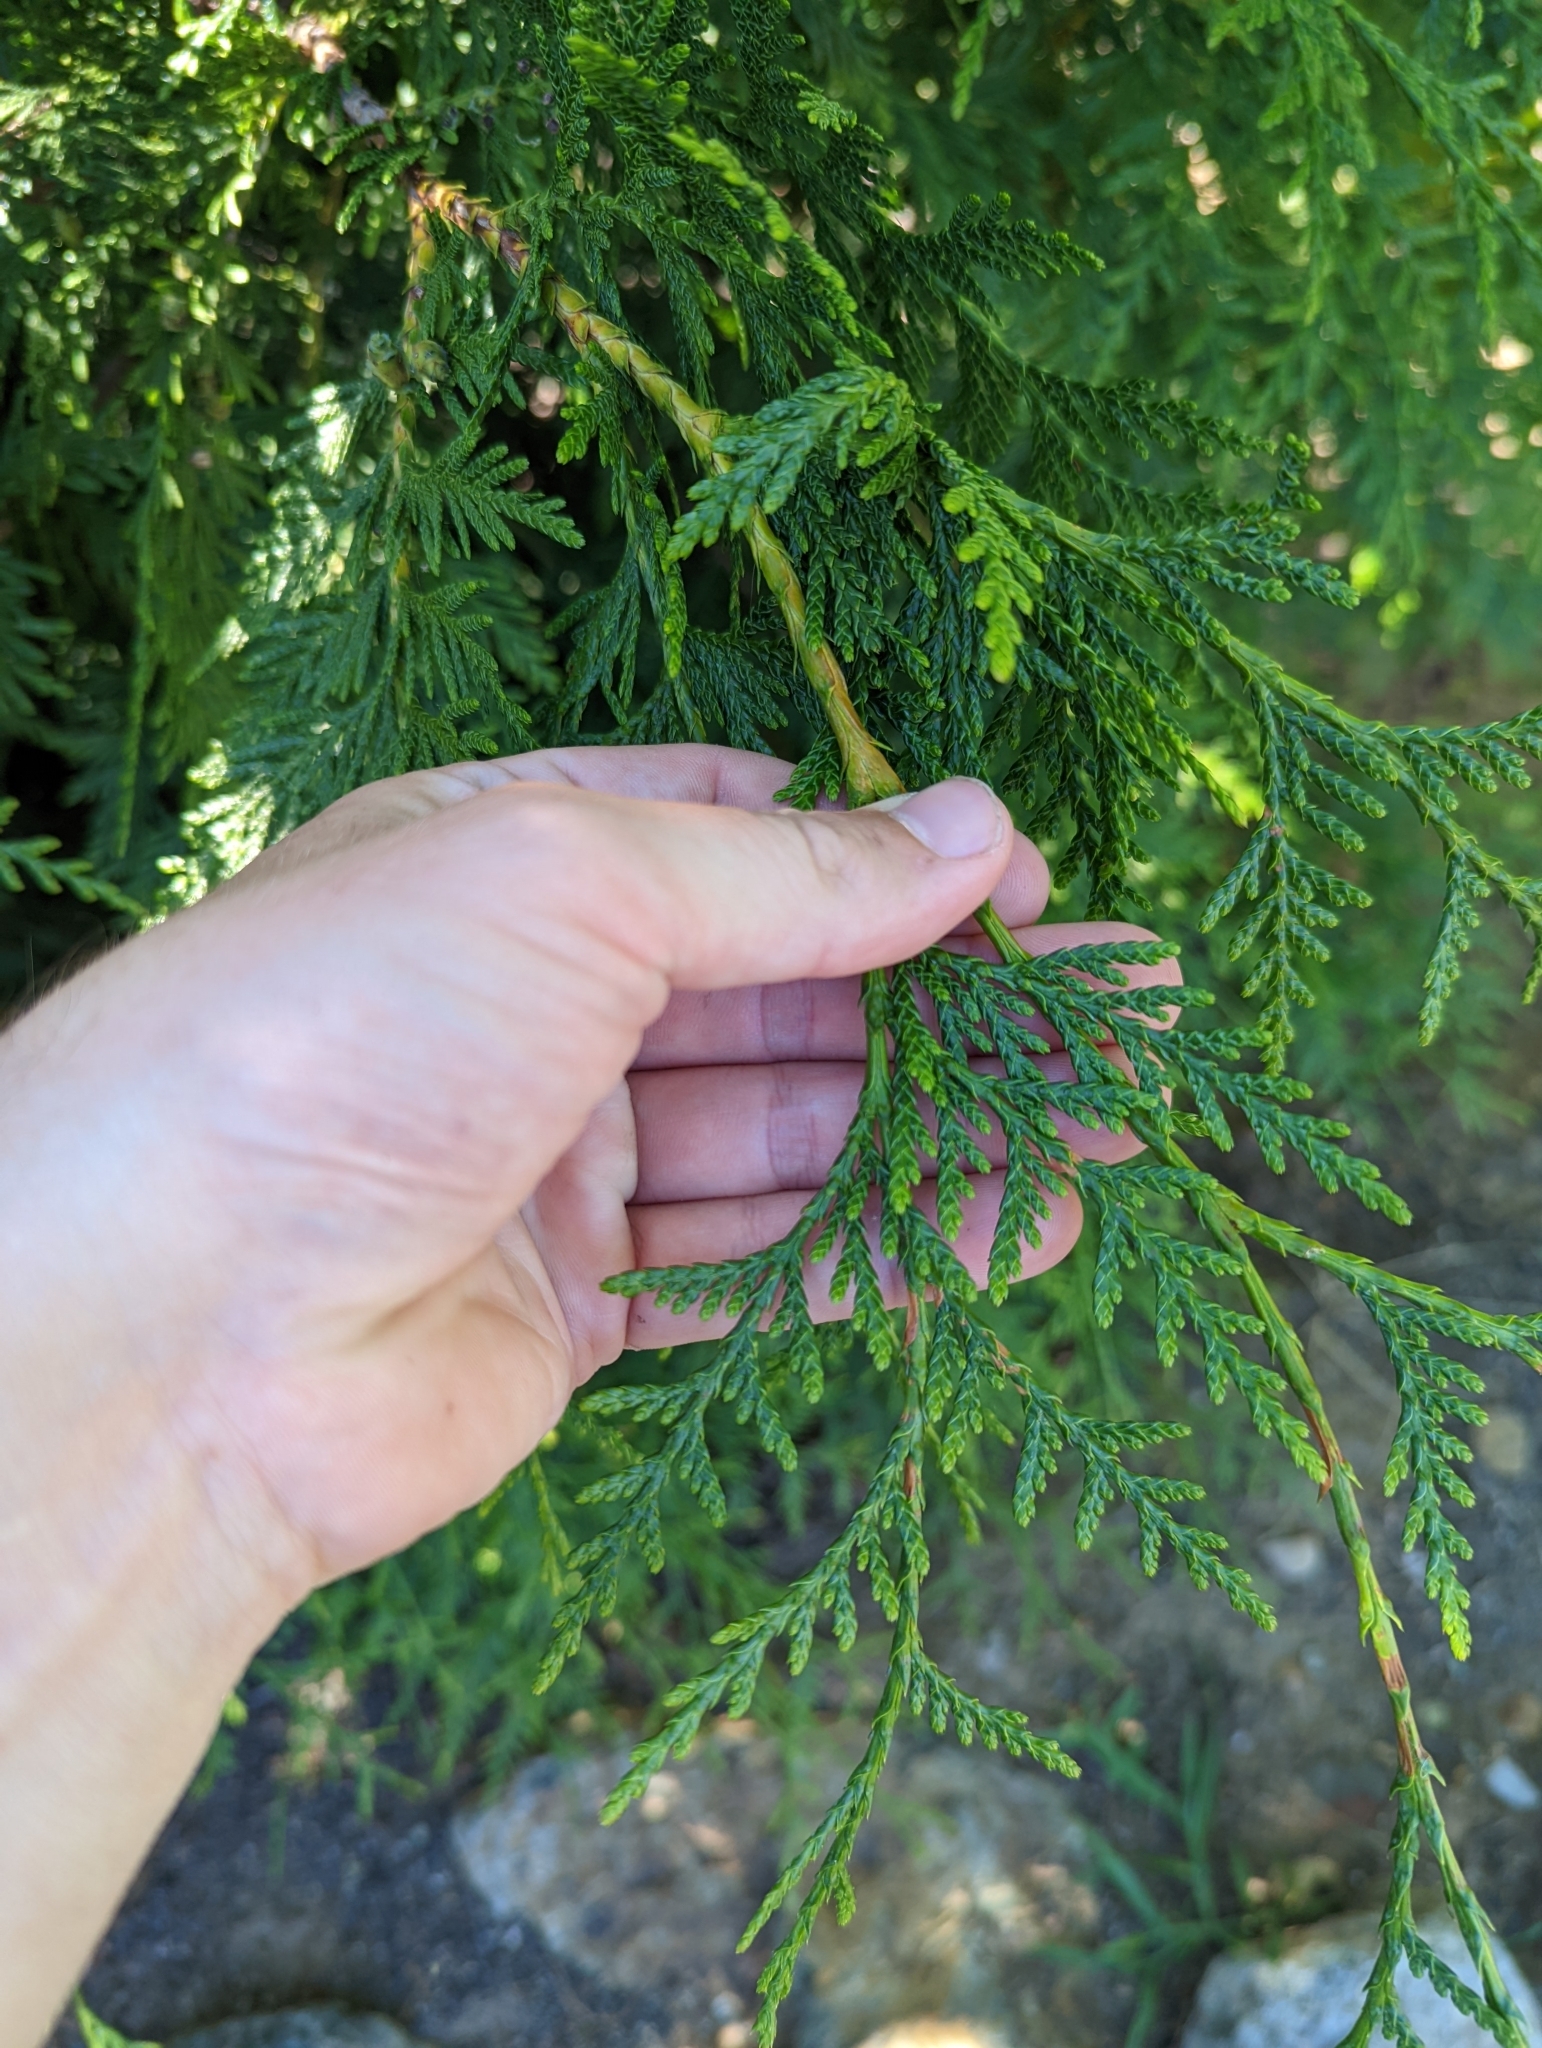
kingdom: Plantae
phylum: Tracheophyta
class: Pinopsida
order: Pinales
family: Cupressaceae
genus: Thuja
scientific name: Thuja plicata
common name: Western red-cedar
